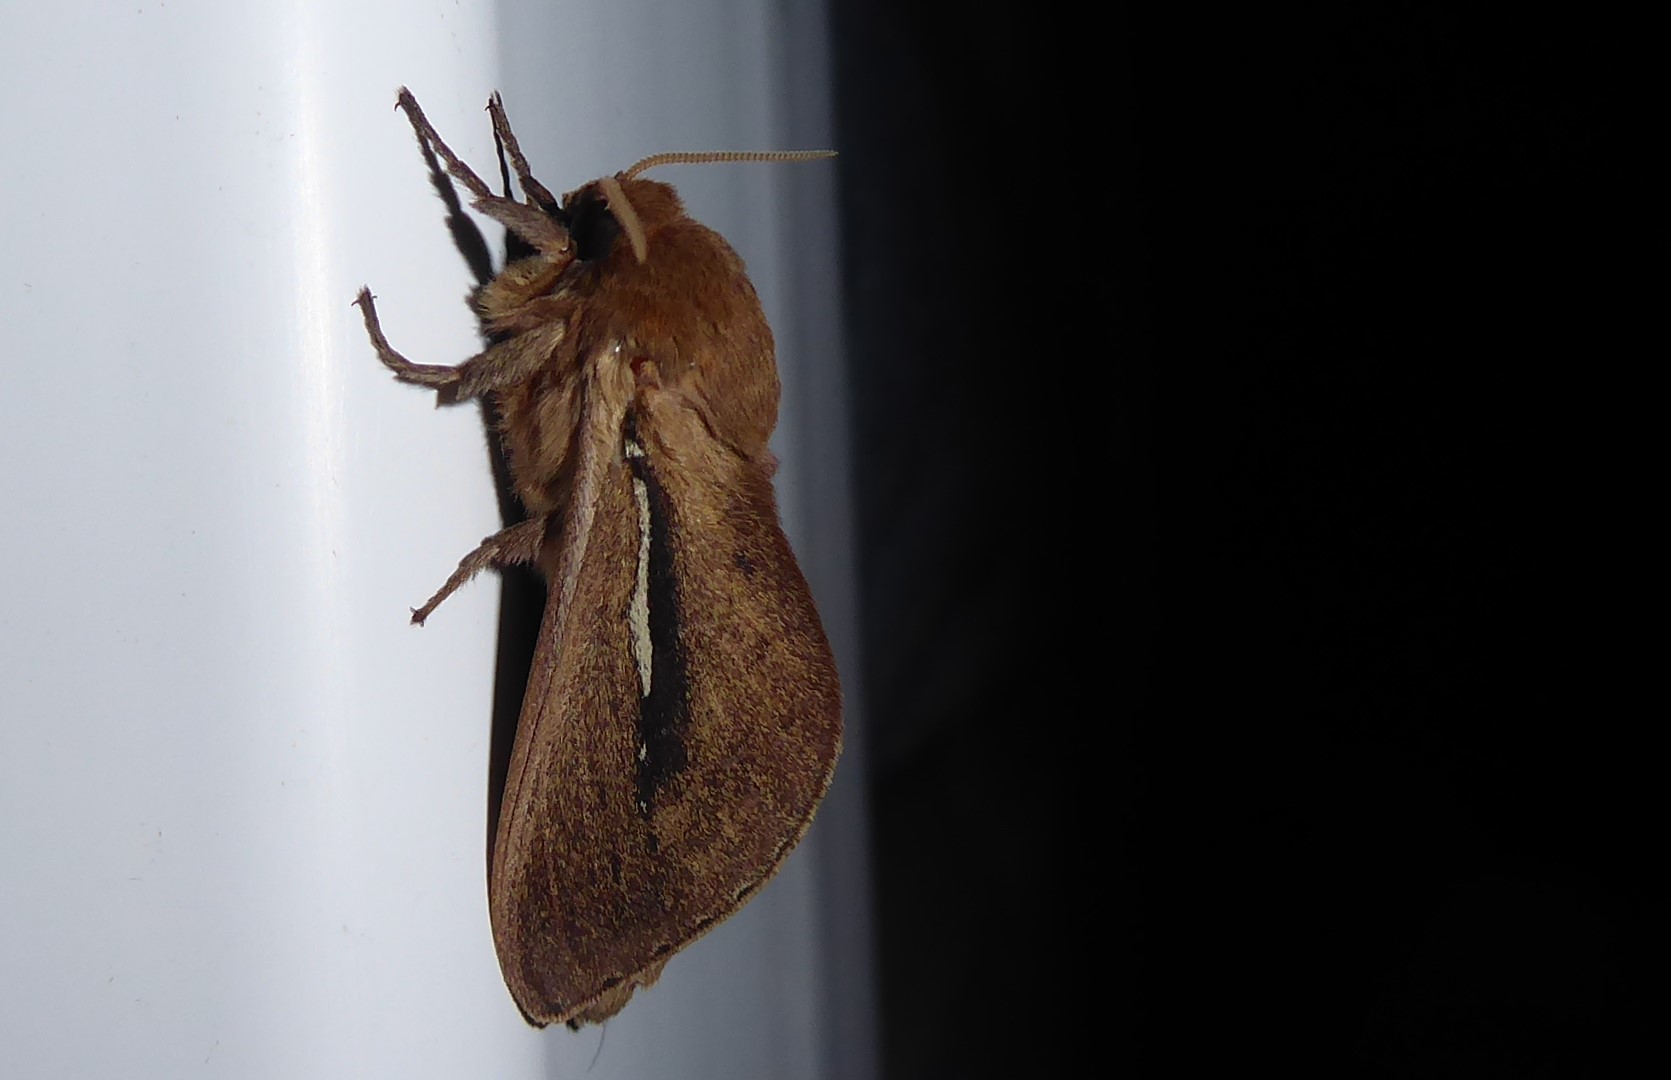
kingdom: Animalia
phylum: Arthropoda
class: Insecta
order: Lepidoptera
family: Hepialidae
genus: Wiseana
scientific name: Wiseana umbraculatus
